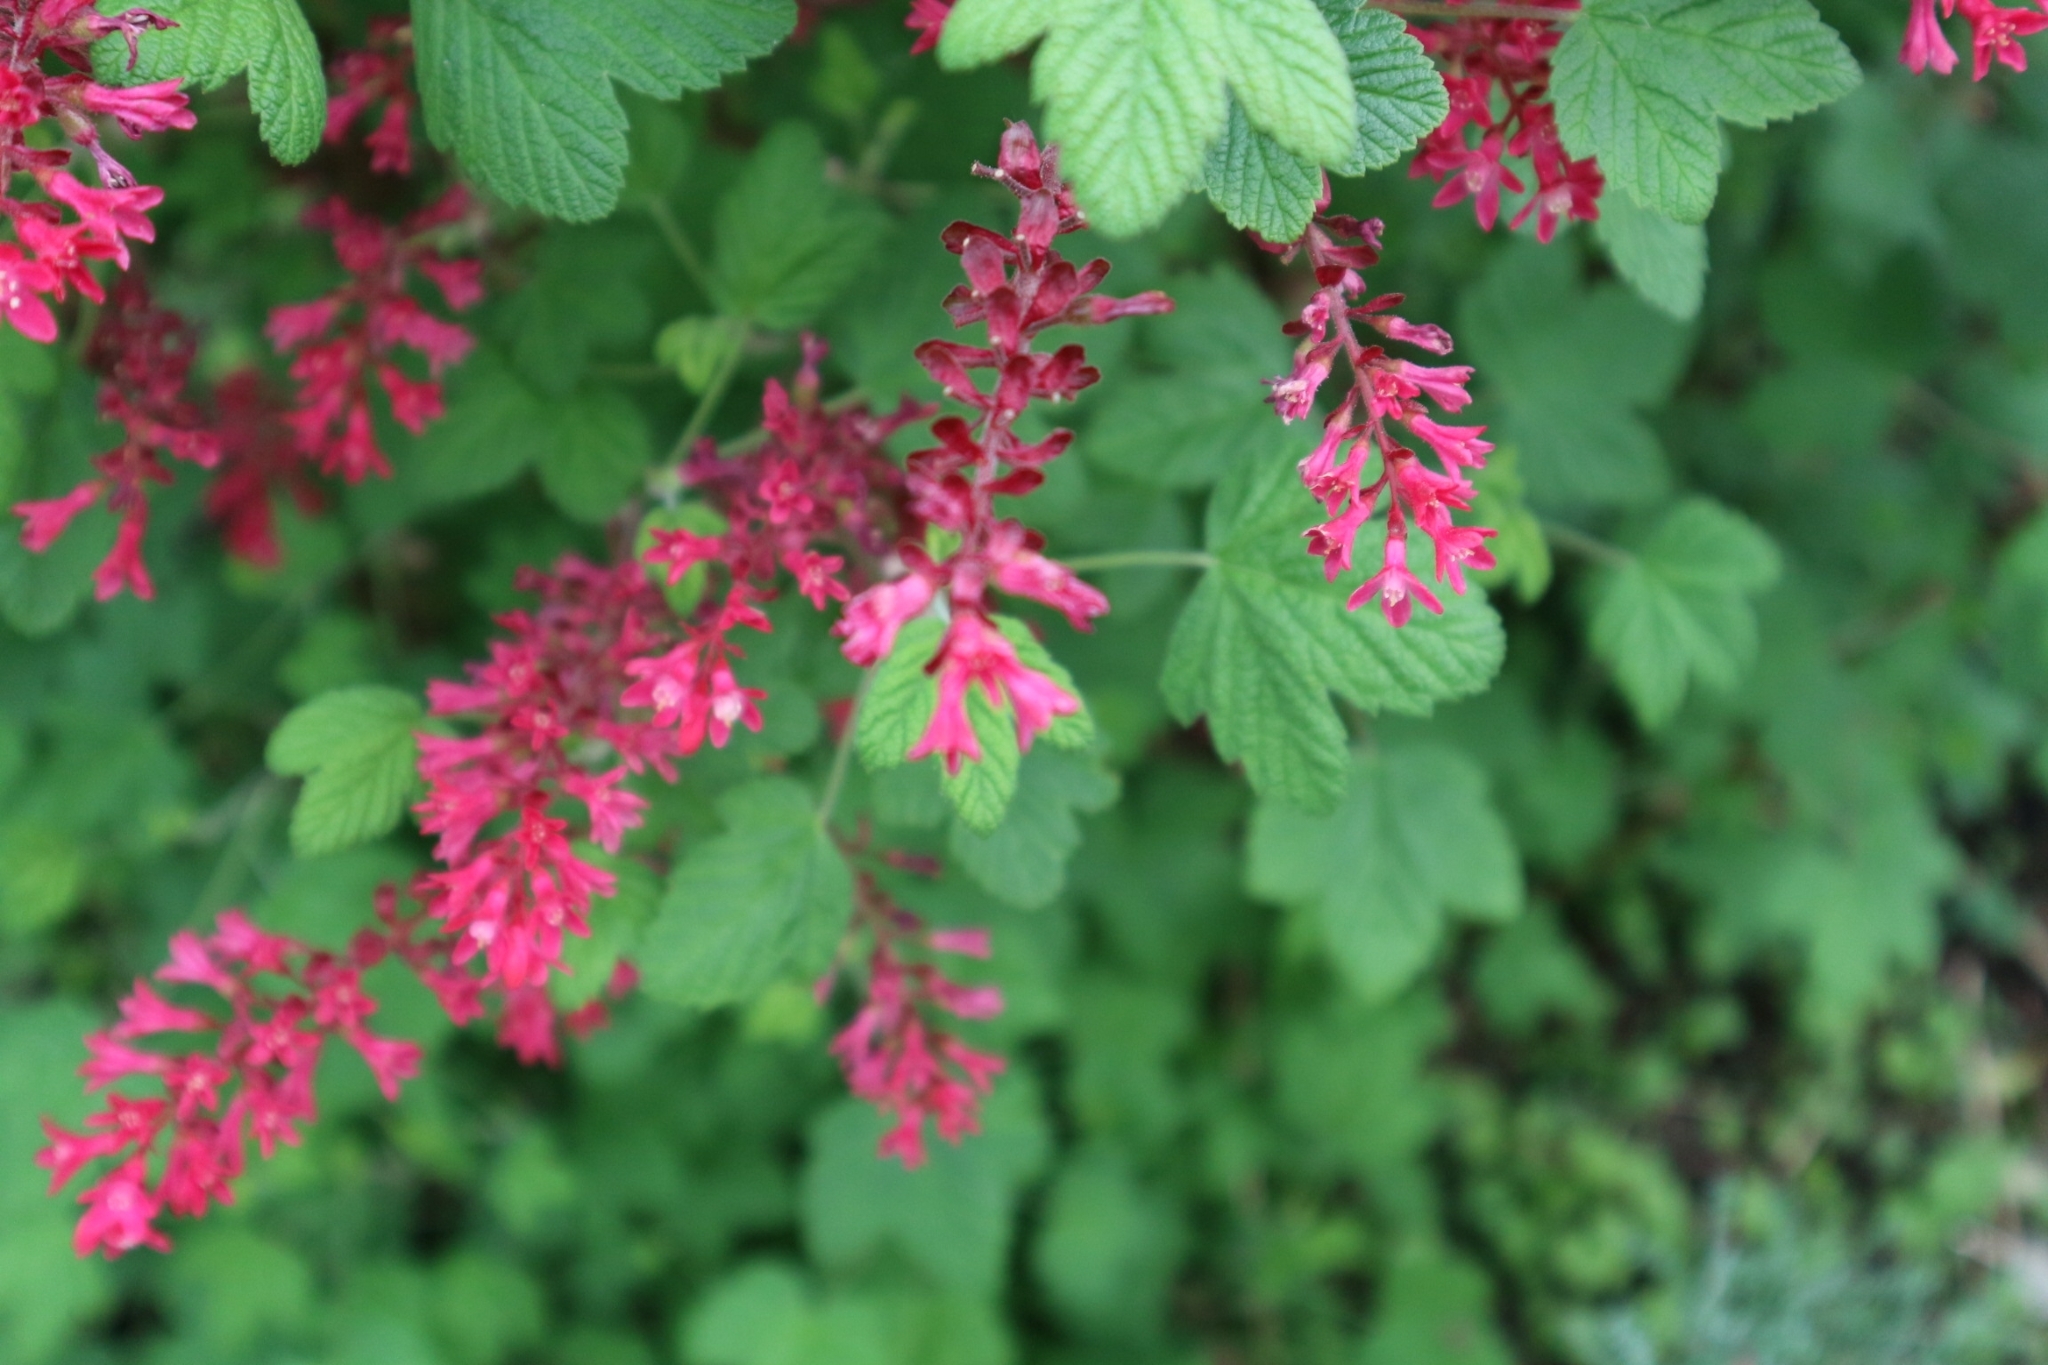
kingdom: Plantae
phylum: Tracheophyta
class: Magnoliopsida
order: Saxifragales
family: Grossulariaceae
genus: Ribes
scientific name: Ribes sanguineum
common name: Flowering currant
